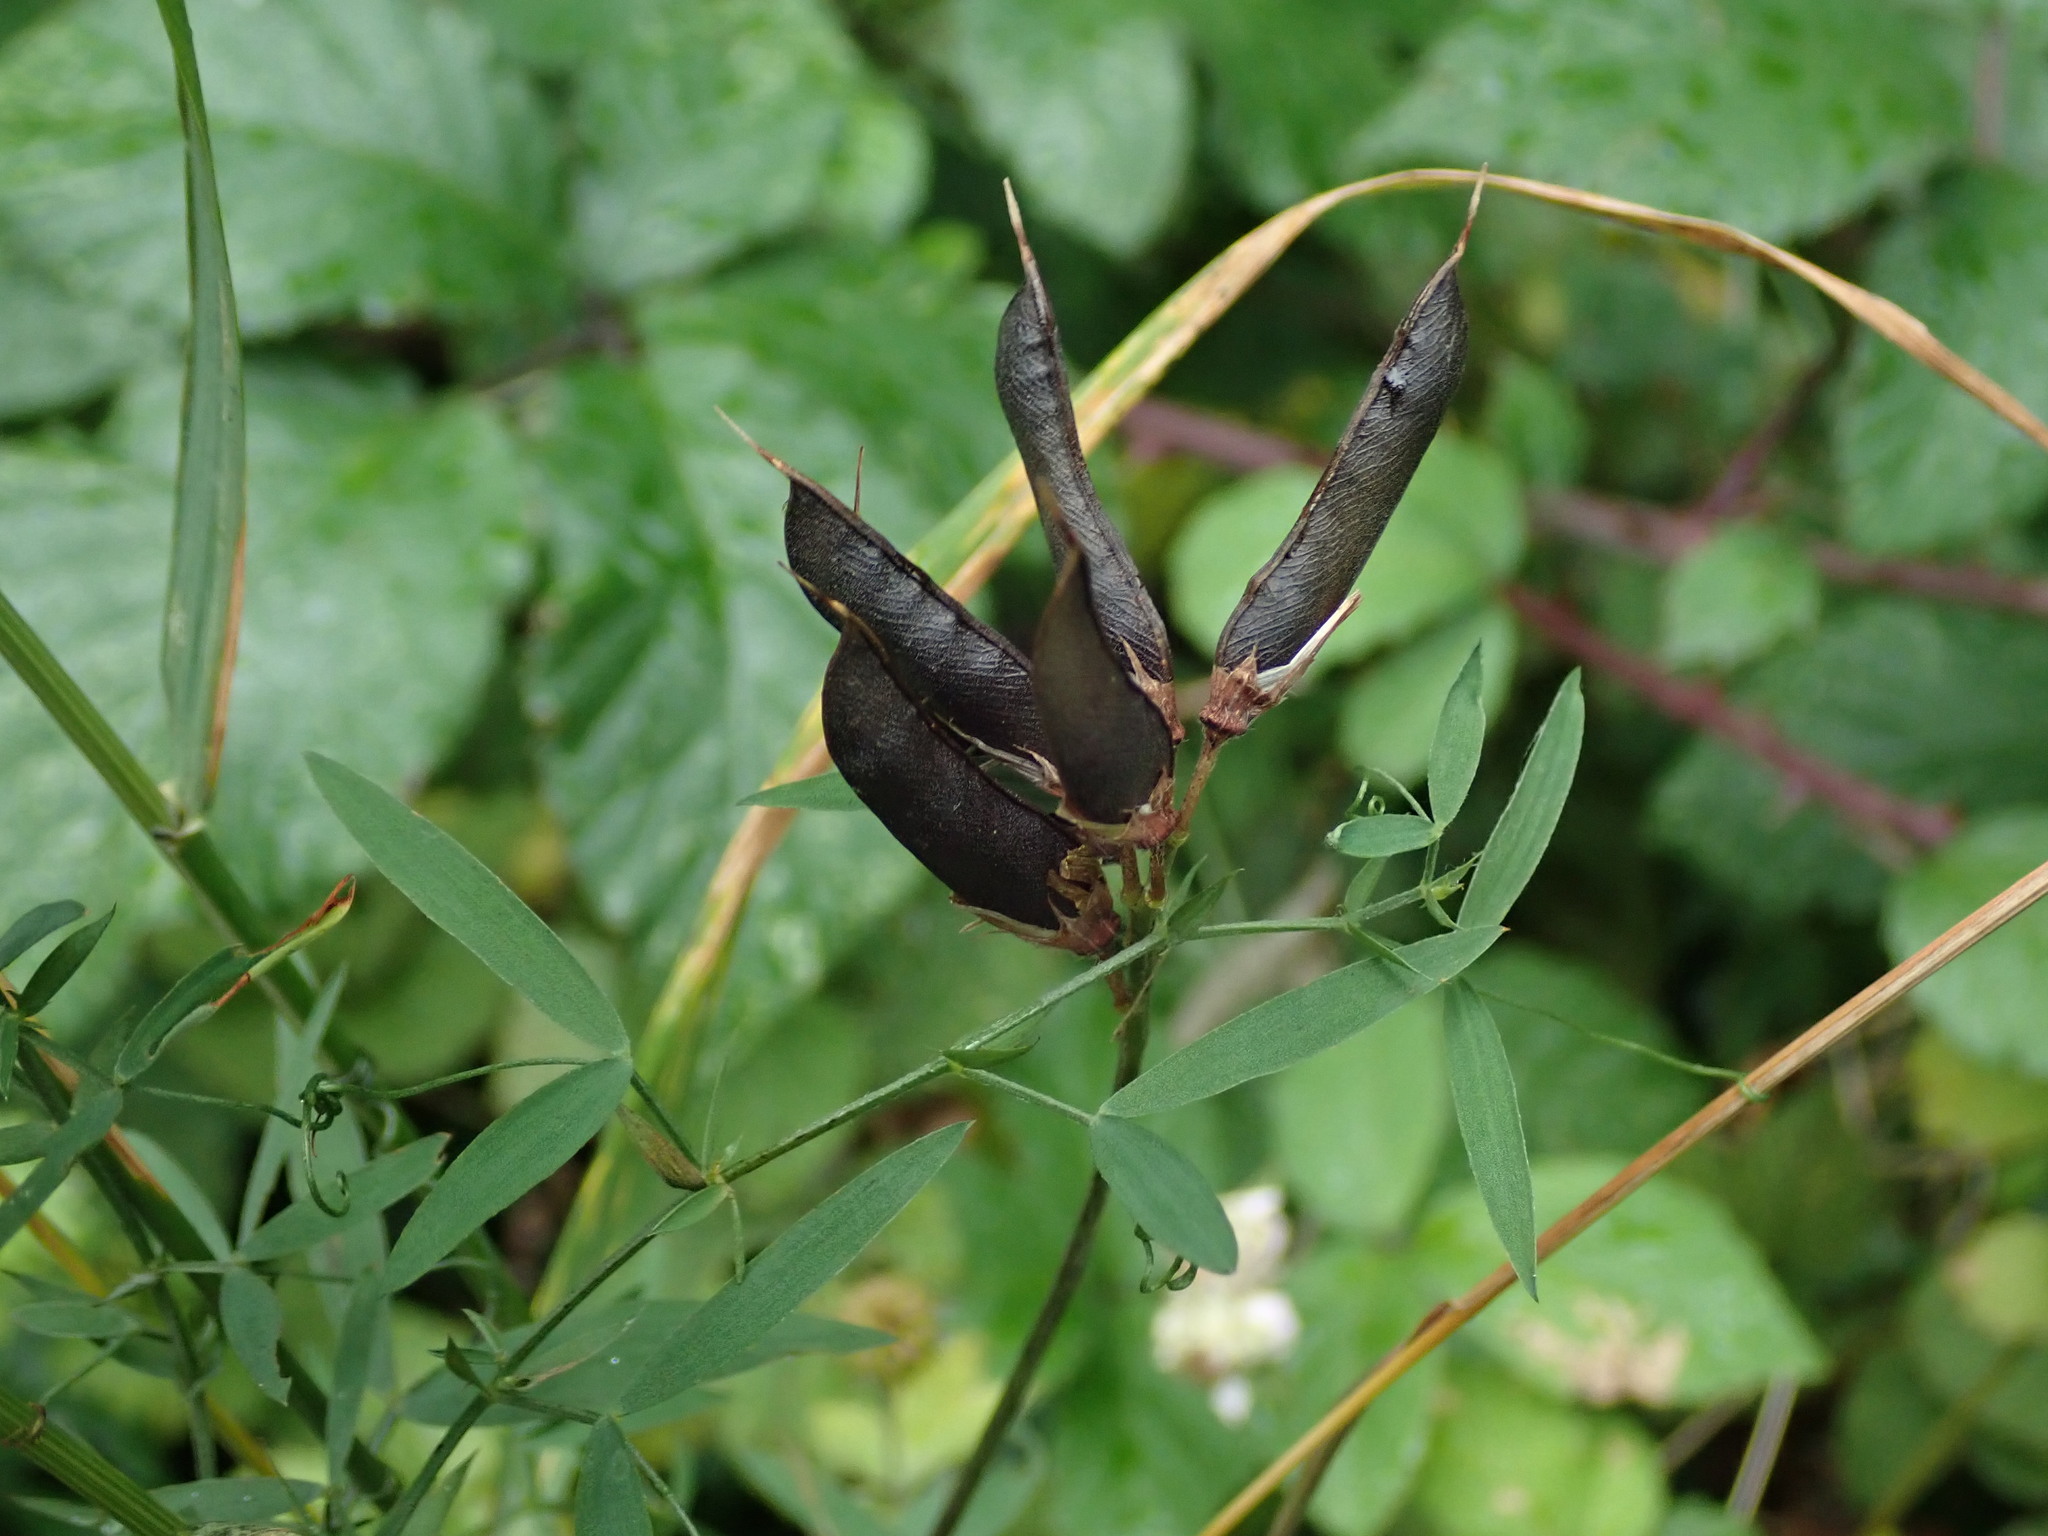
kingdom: Plantae
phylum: Tracheophyta
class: Magnoliopsida
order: Fabales
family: Fabaceae
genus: Lathyrus
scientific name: Lathyrus pratensis
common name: Meadow vetchling
